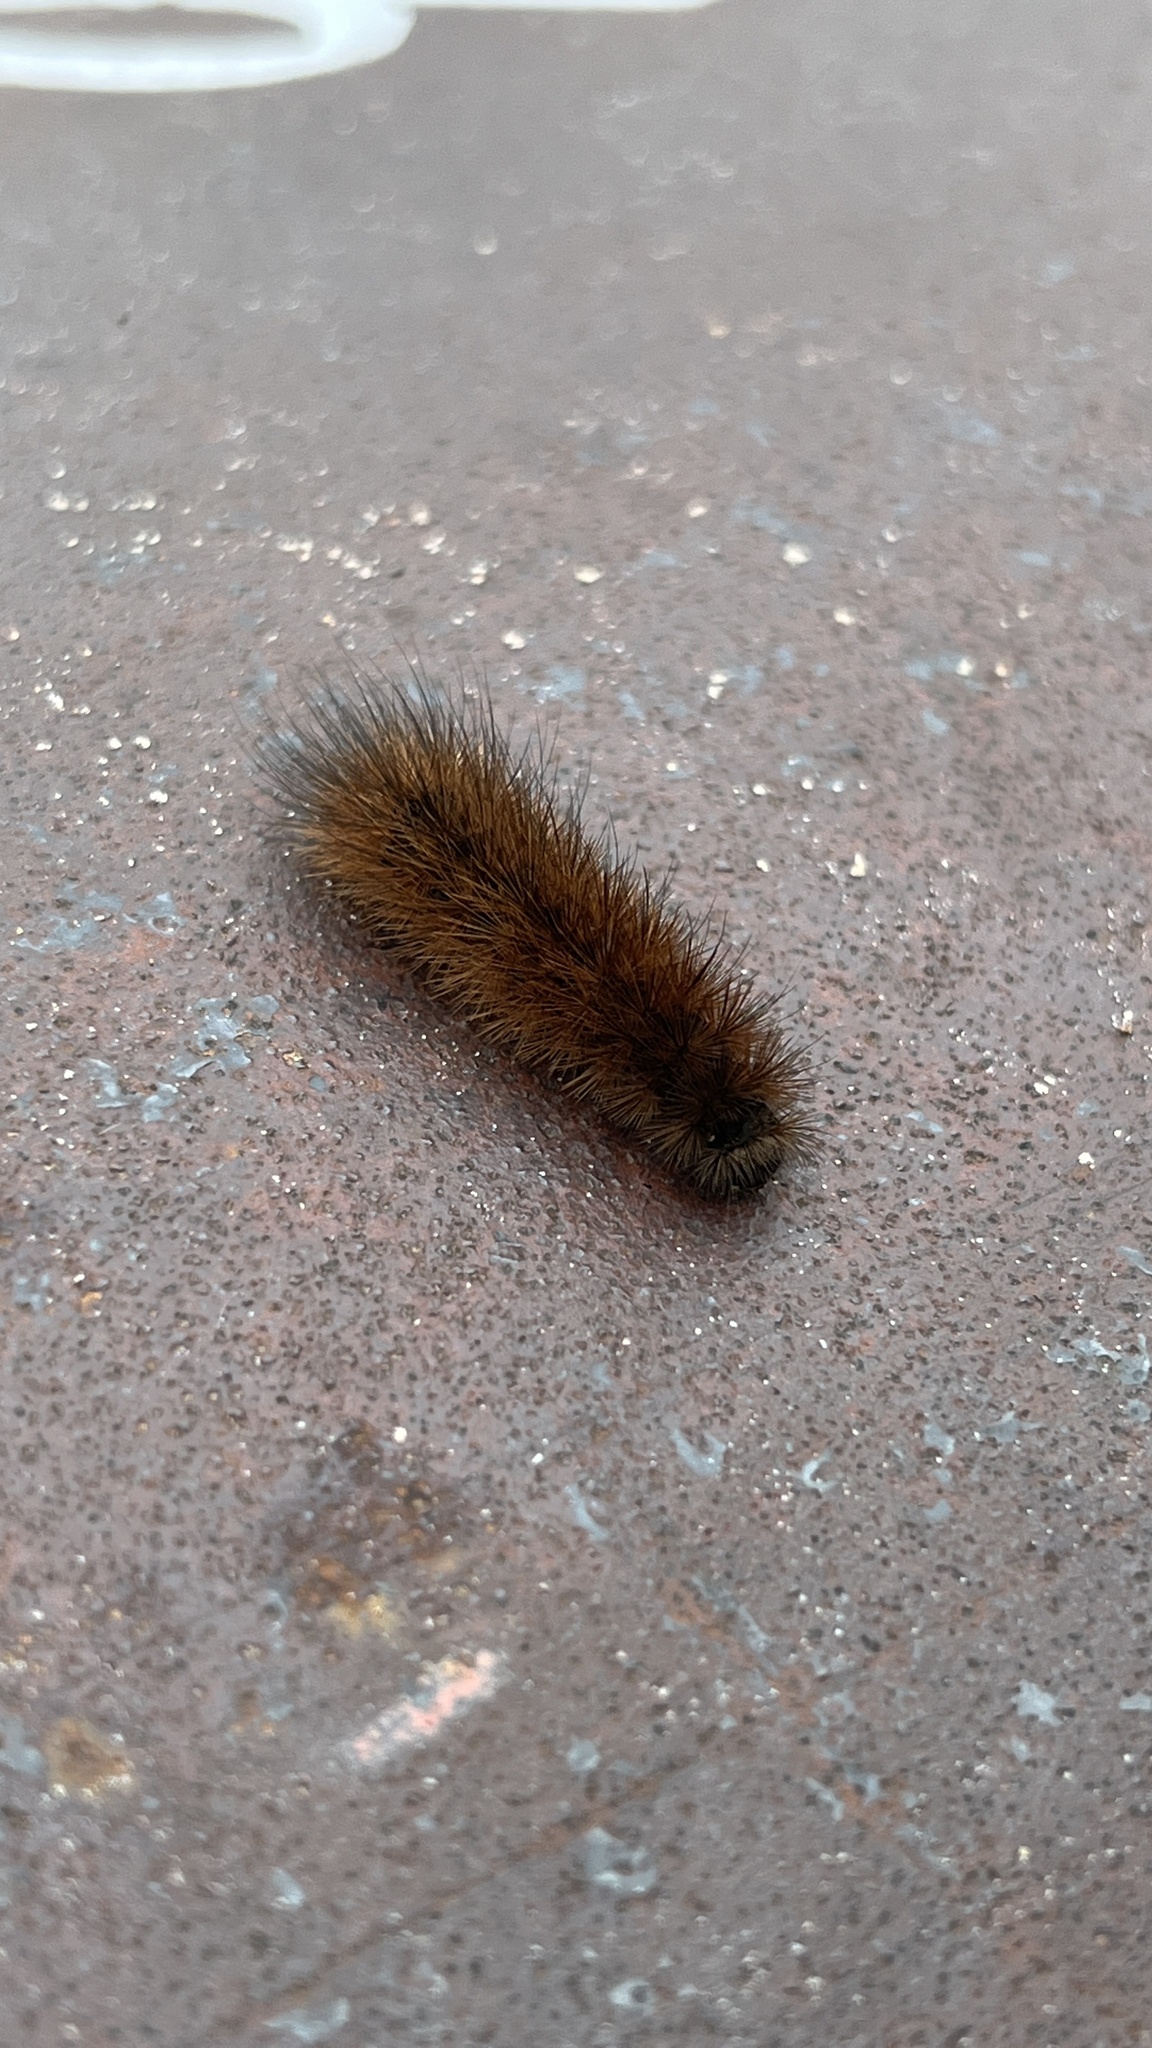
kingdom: Animalia
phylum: Arthropoda
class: Insecta
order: Lepidoptera
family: Erebidae
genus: Phragmatobia
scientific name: Phragmatobia fuliginosa
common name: Ruby tiger
